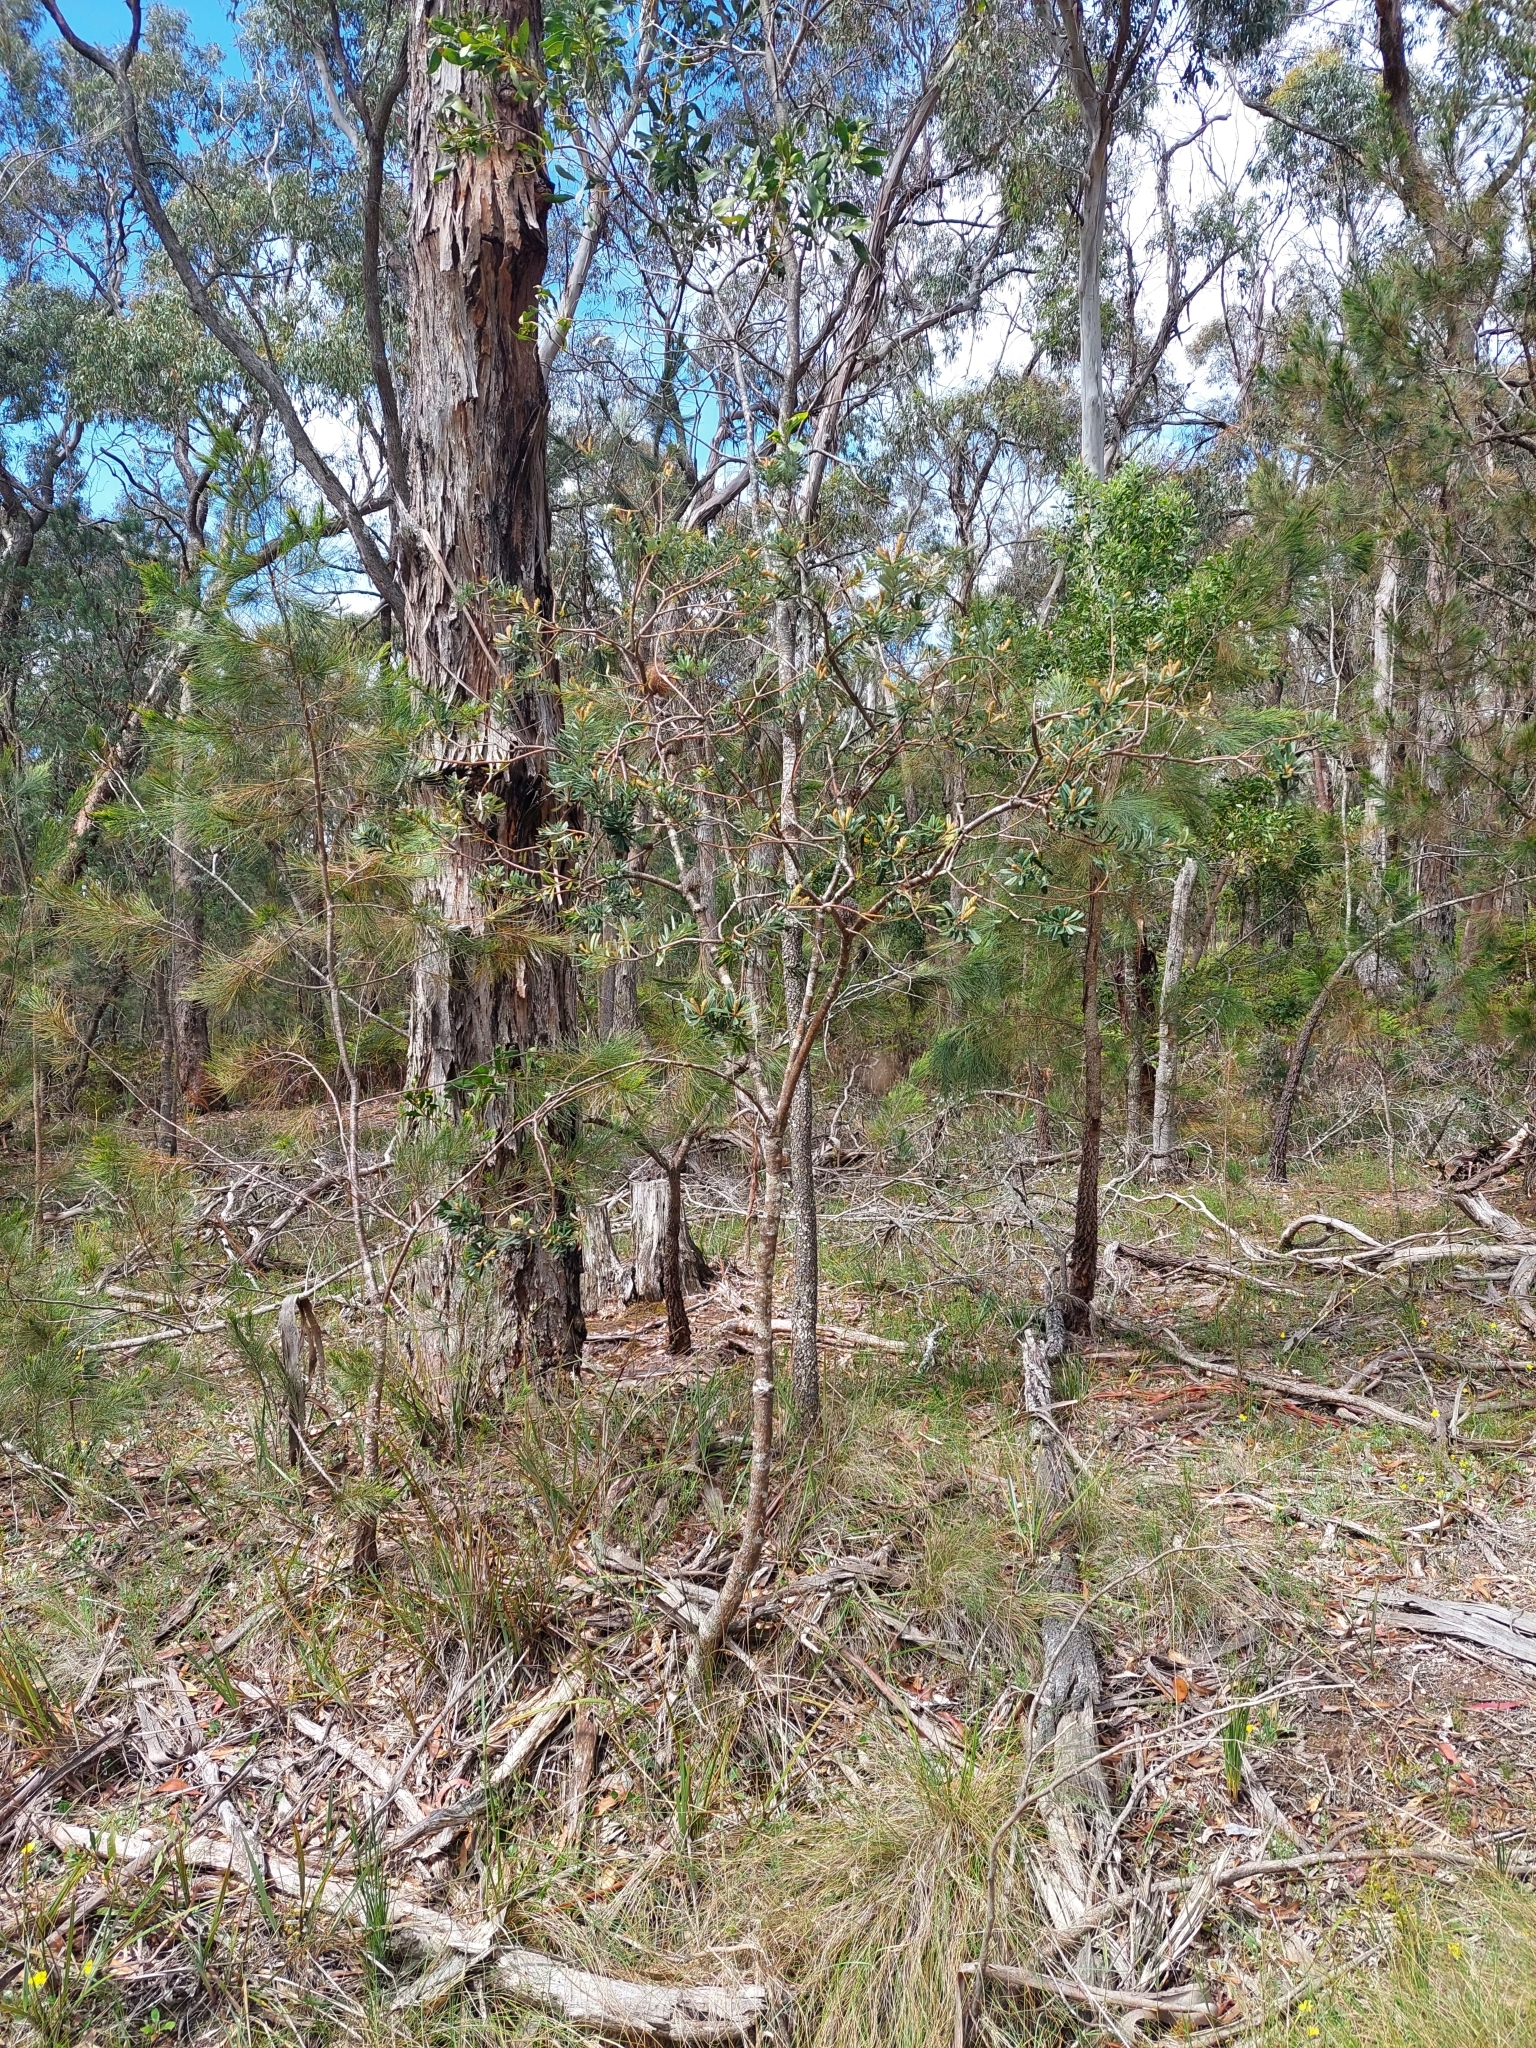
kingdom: Plantae
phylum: Tracheophyta
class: Magnoliopsida
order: Proteales
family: Proteaceae
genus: Banksia
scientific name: Banksia marginata
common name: Silver banksia
